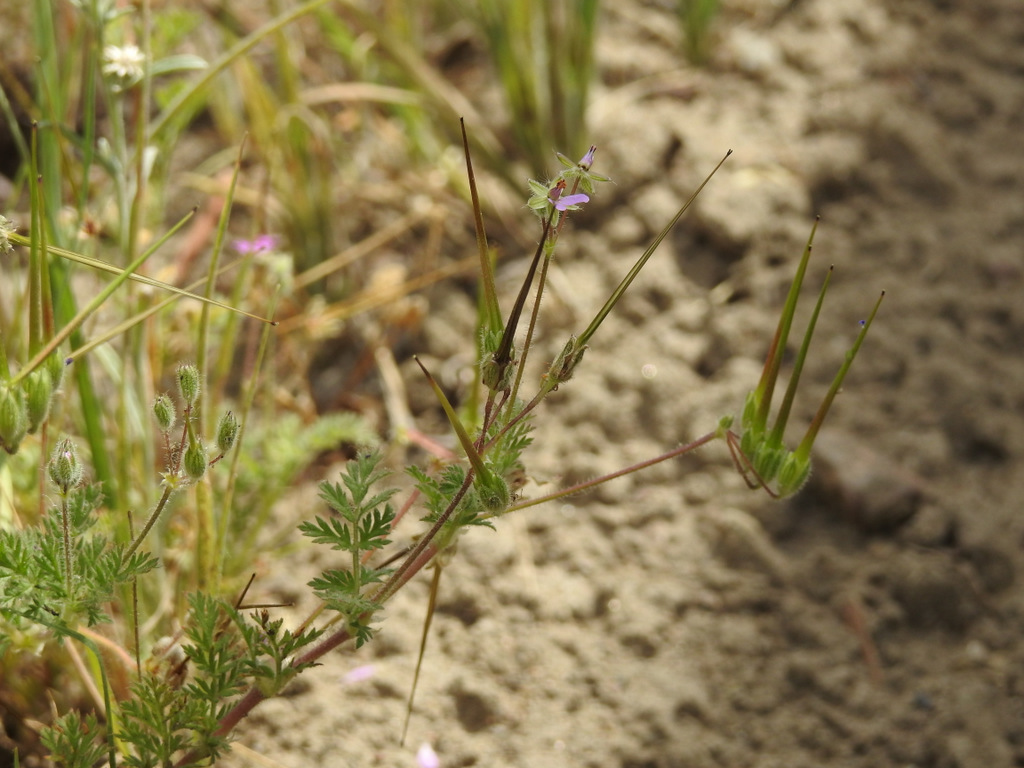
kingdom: Plantae
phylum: Tracheophyta
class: Magnoliopsida
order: Geraniales
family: Geraniaceae
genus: Erodium
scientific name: Erodium cicutarium
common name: Common stork's-bill
